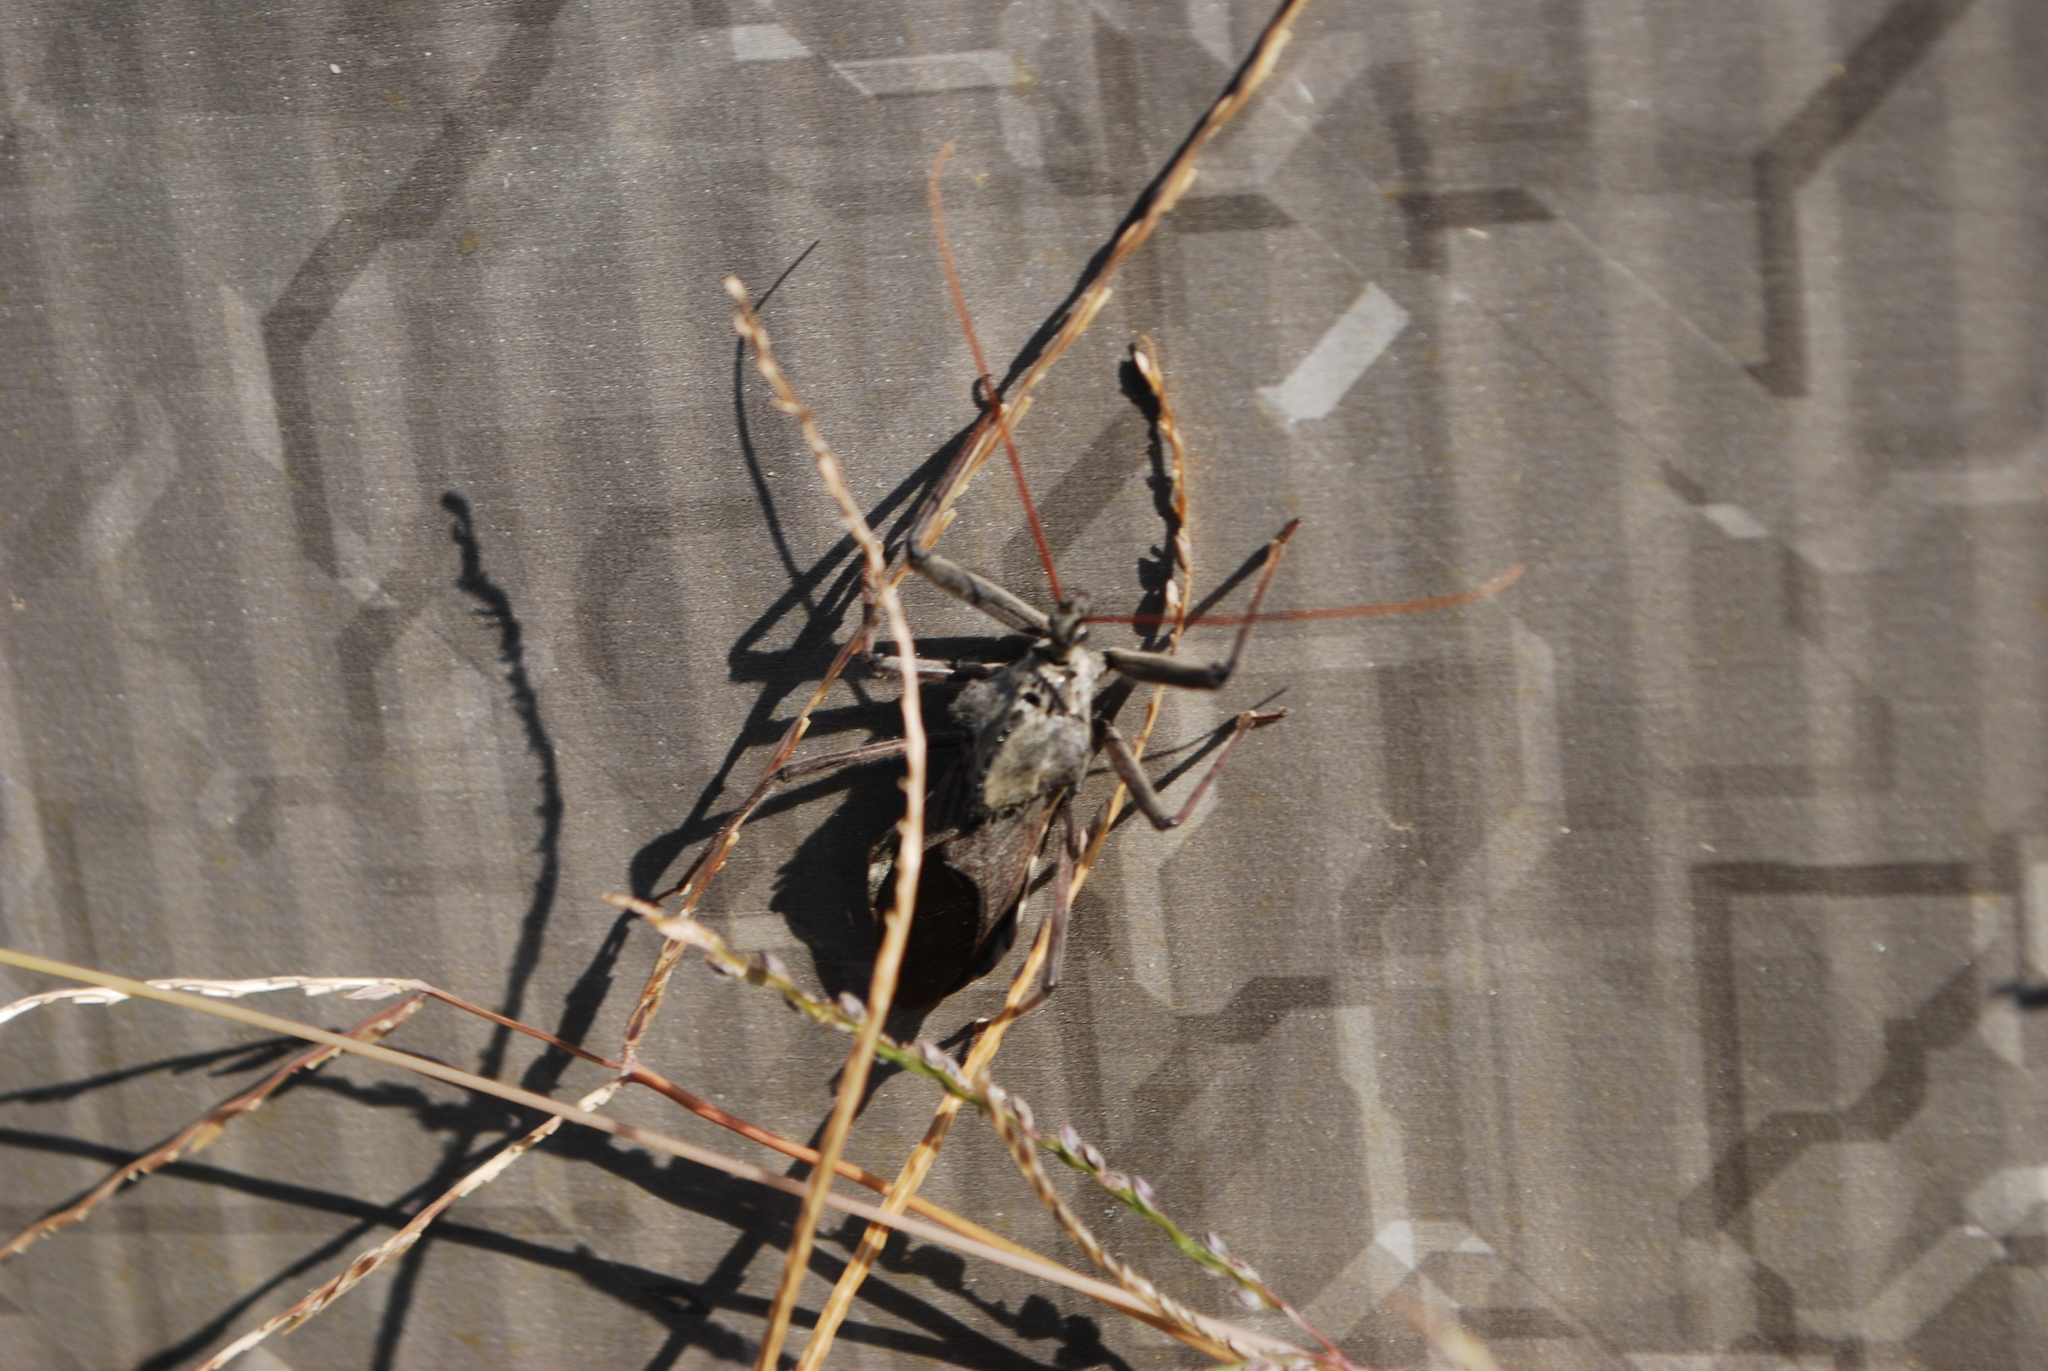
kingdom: Animalia
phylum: Arthropoda
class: Insecta
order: Hemiptera
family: Reduviidae
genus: Arilus
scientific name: Arilus cristatus
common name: North american wheel bug
